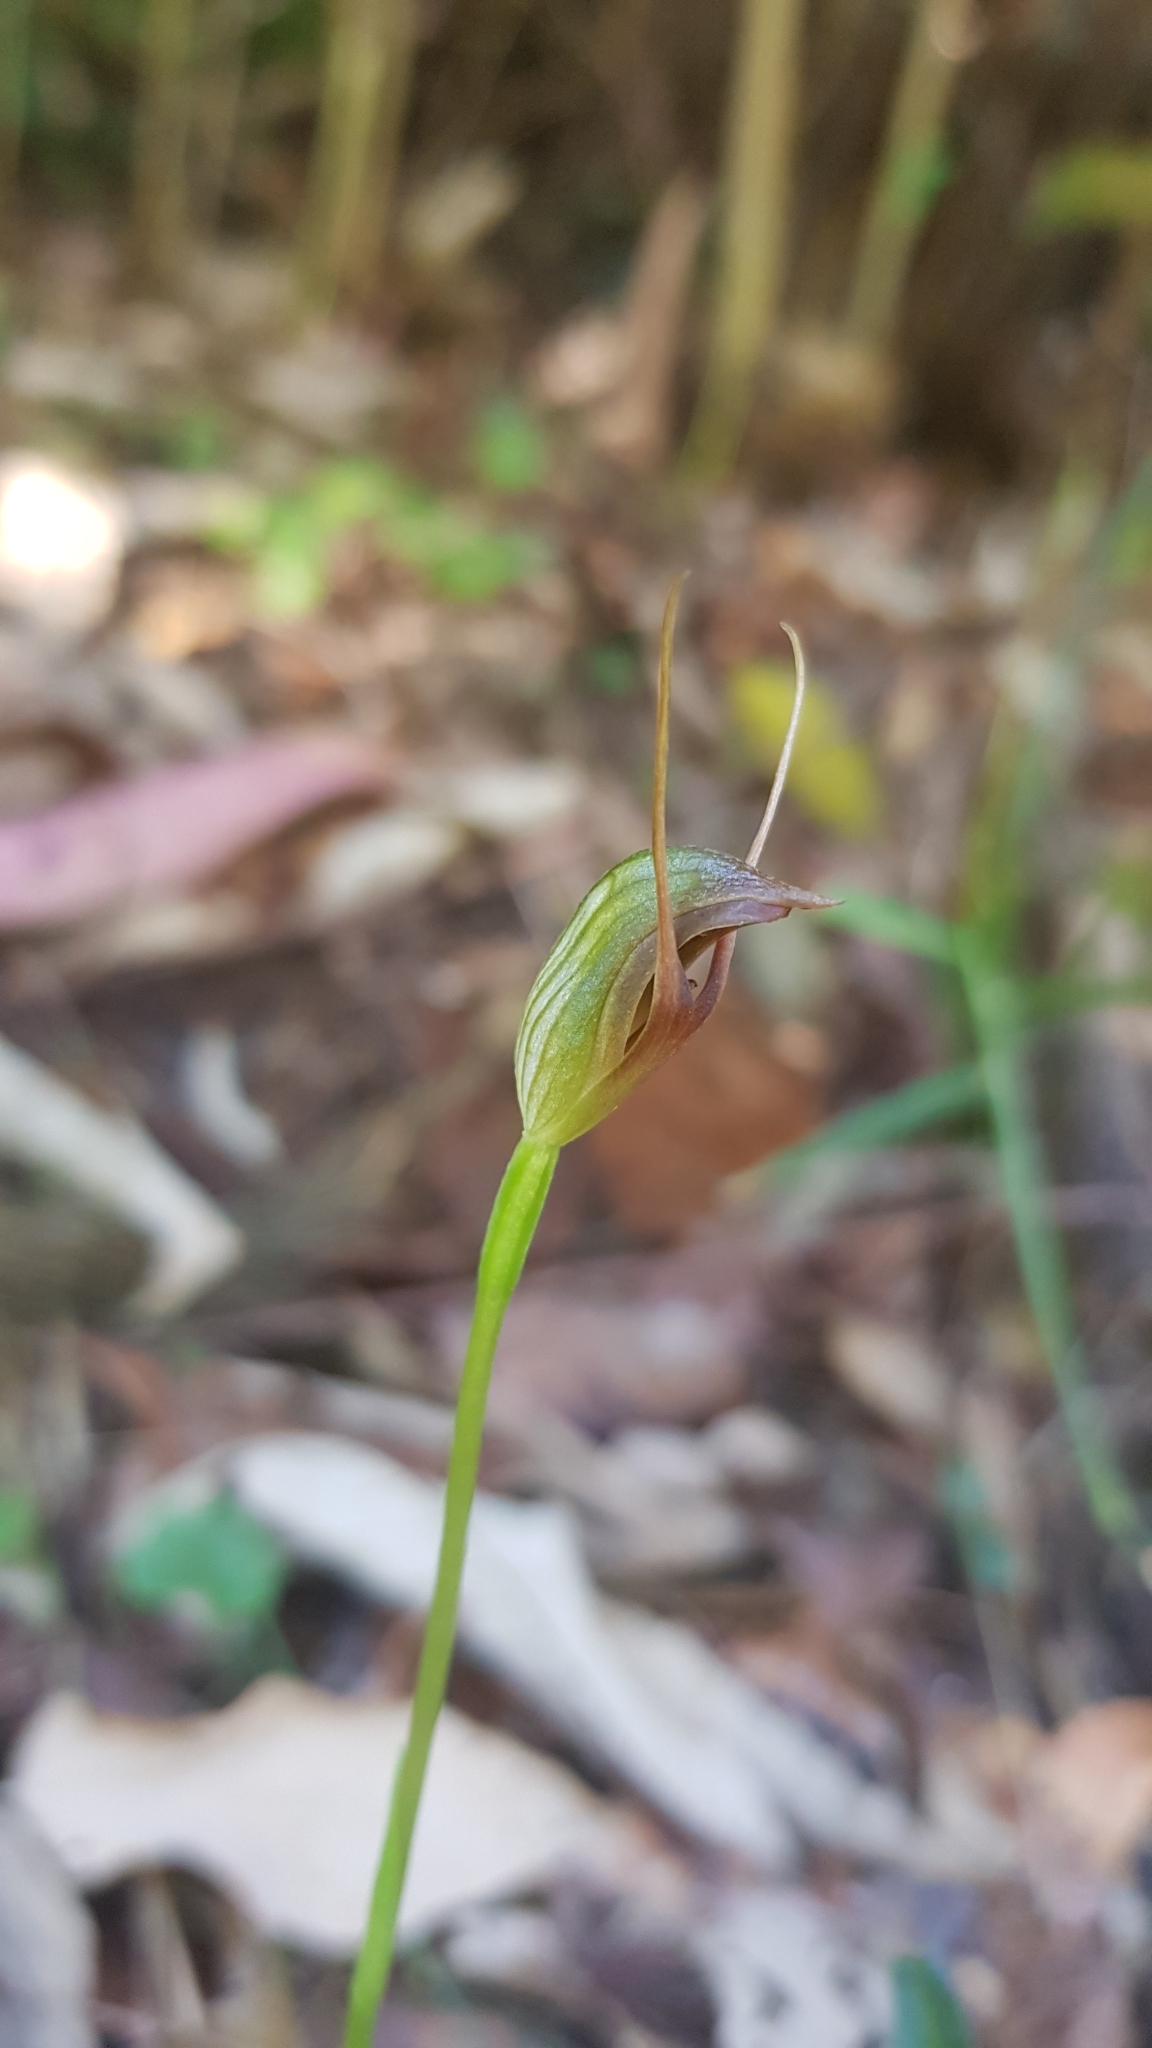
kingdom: Plantae
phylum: Tracheophyta
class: Liliopsida
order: Asparagales
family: Orchidaceae
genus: Pterostylis
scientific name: Pterostylis erecta
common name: Upright maroonhood
